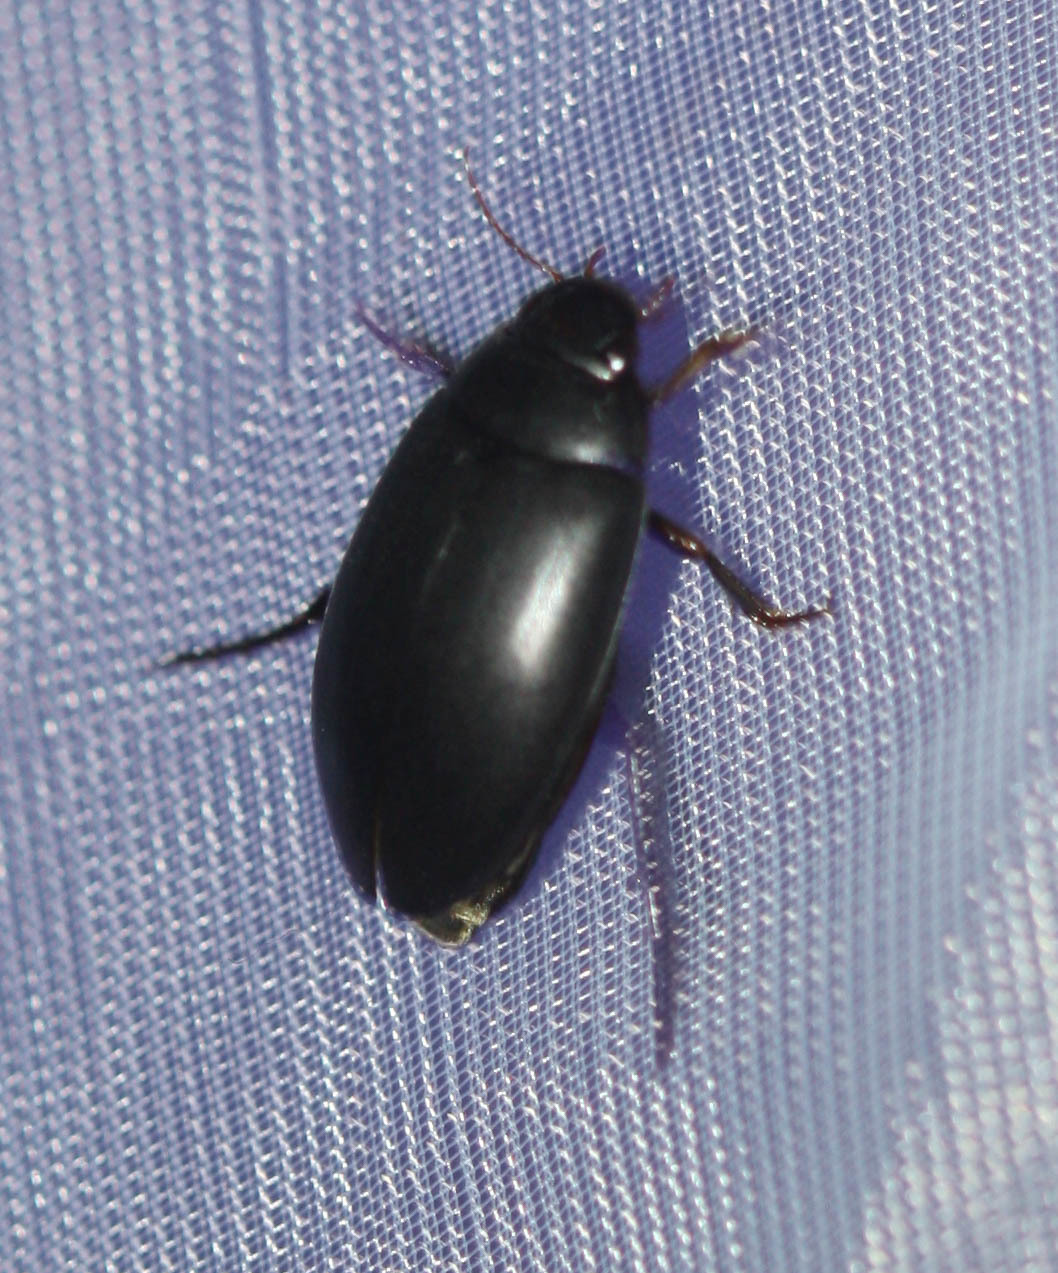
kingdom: Animalia
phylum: Arthropoda
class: Insecta
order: Coleoptera
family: Dytiscidae
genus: Nartus
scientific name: Nartus grapii
